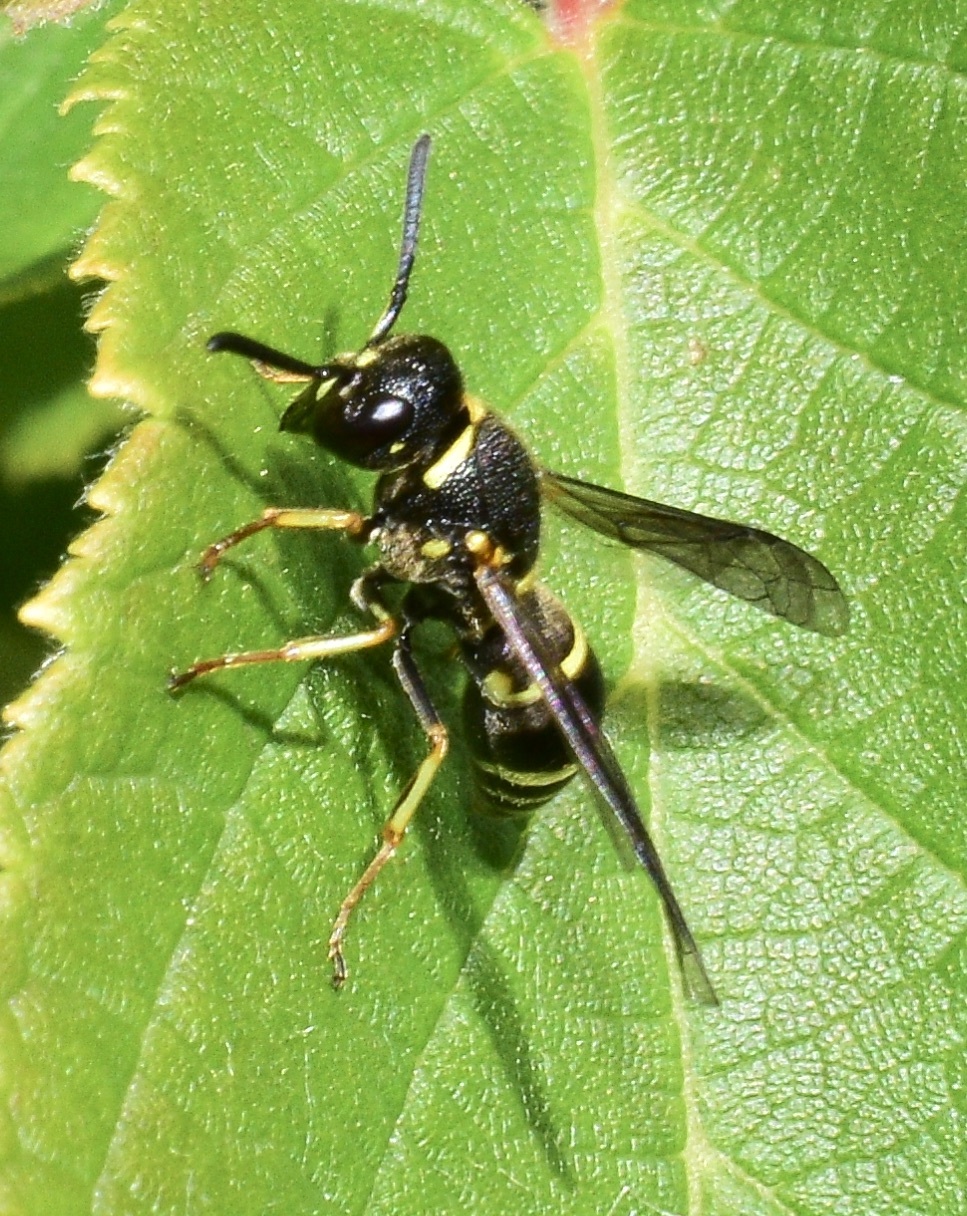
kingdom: Animalia
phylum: Arthropoda
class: Insecta
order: Hymenoptera
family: Eumenidae
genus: Euodynerus
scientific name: Euodynerus foraminatus
